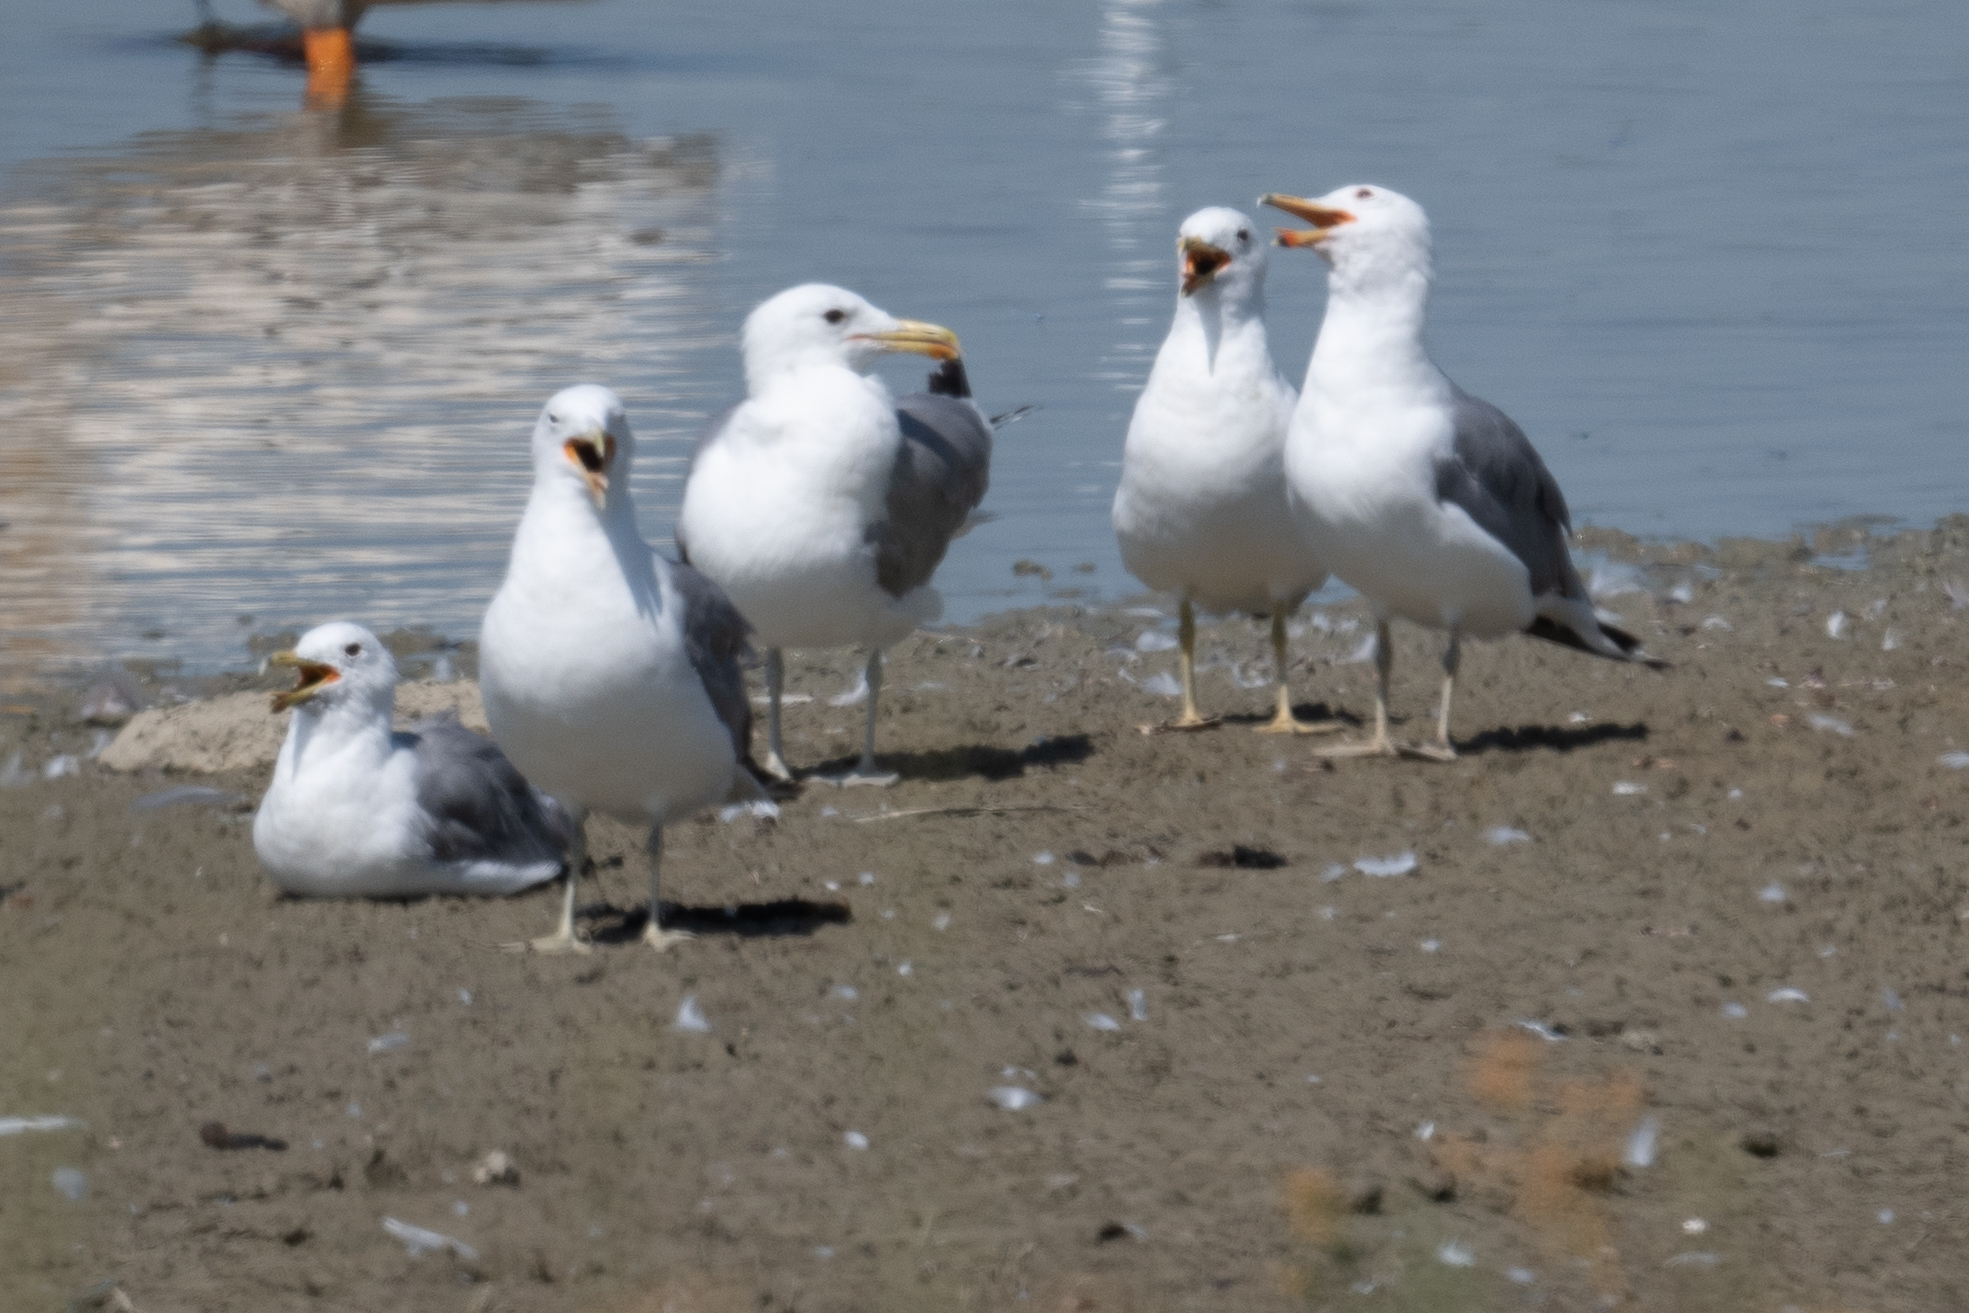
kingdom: Animalia
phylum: Chordata
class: Aves
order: Charadriiformes
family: Laridae
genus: Larus
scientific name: Larus californicus
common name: California gull
